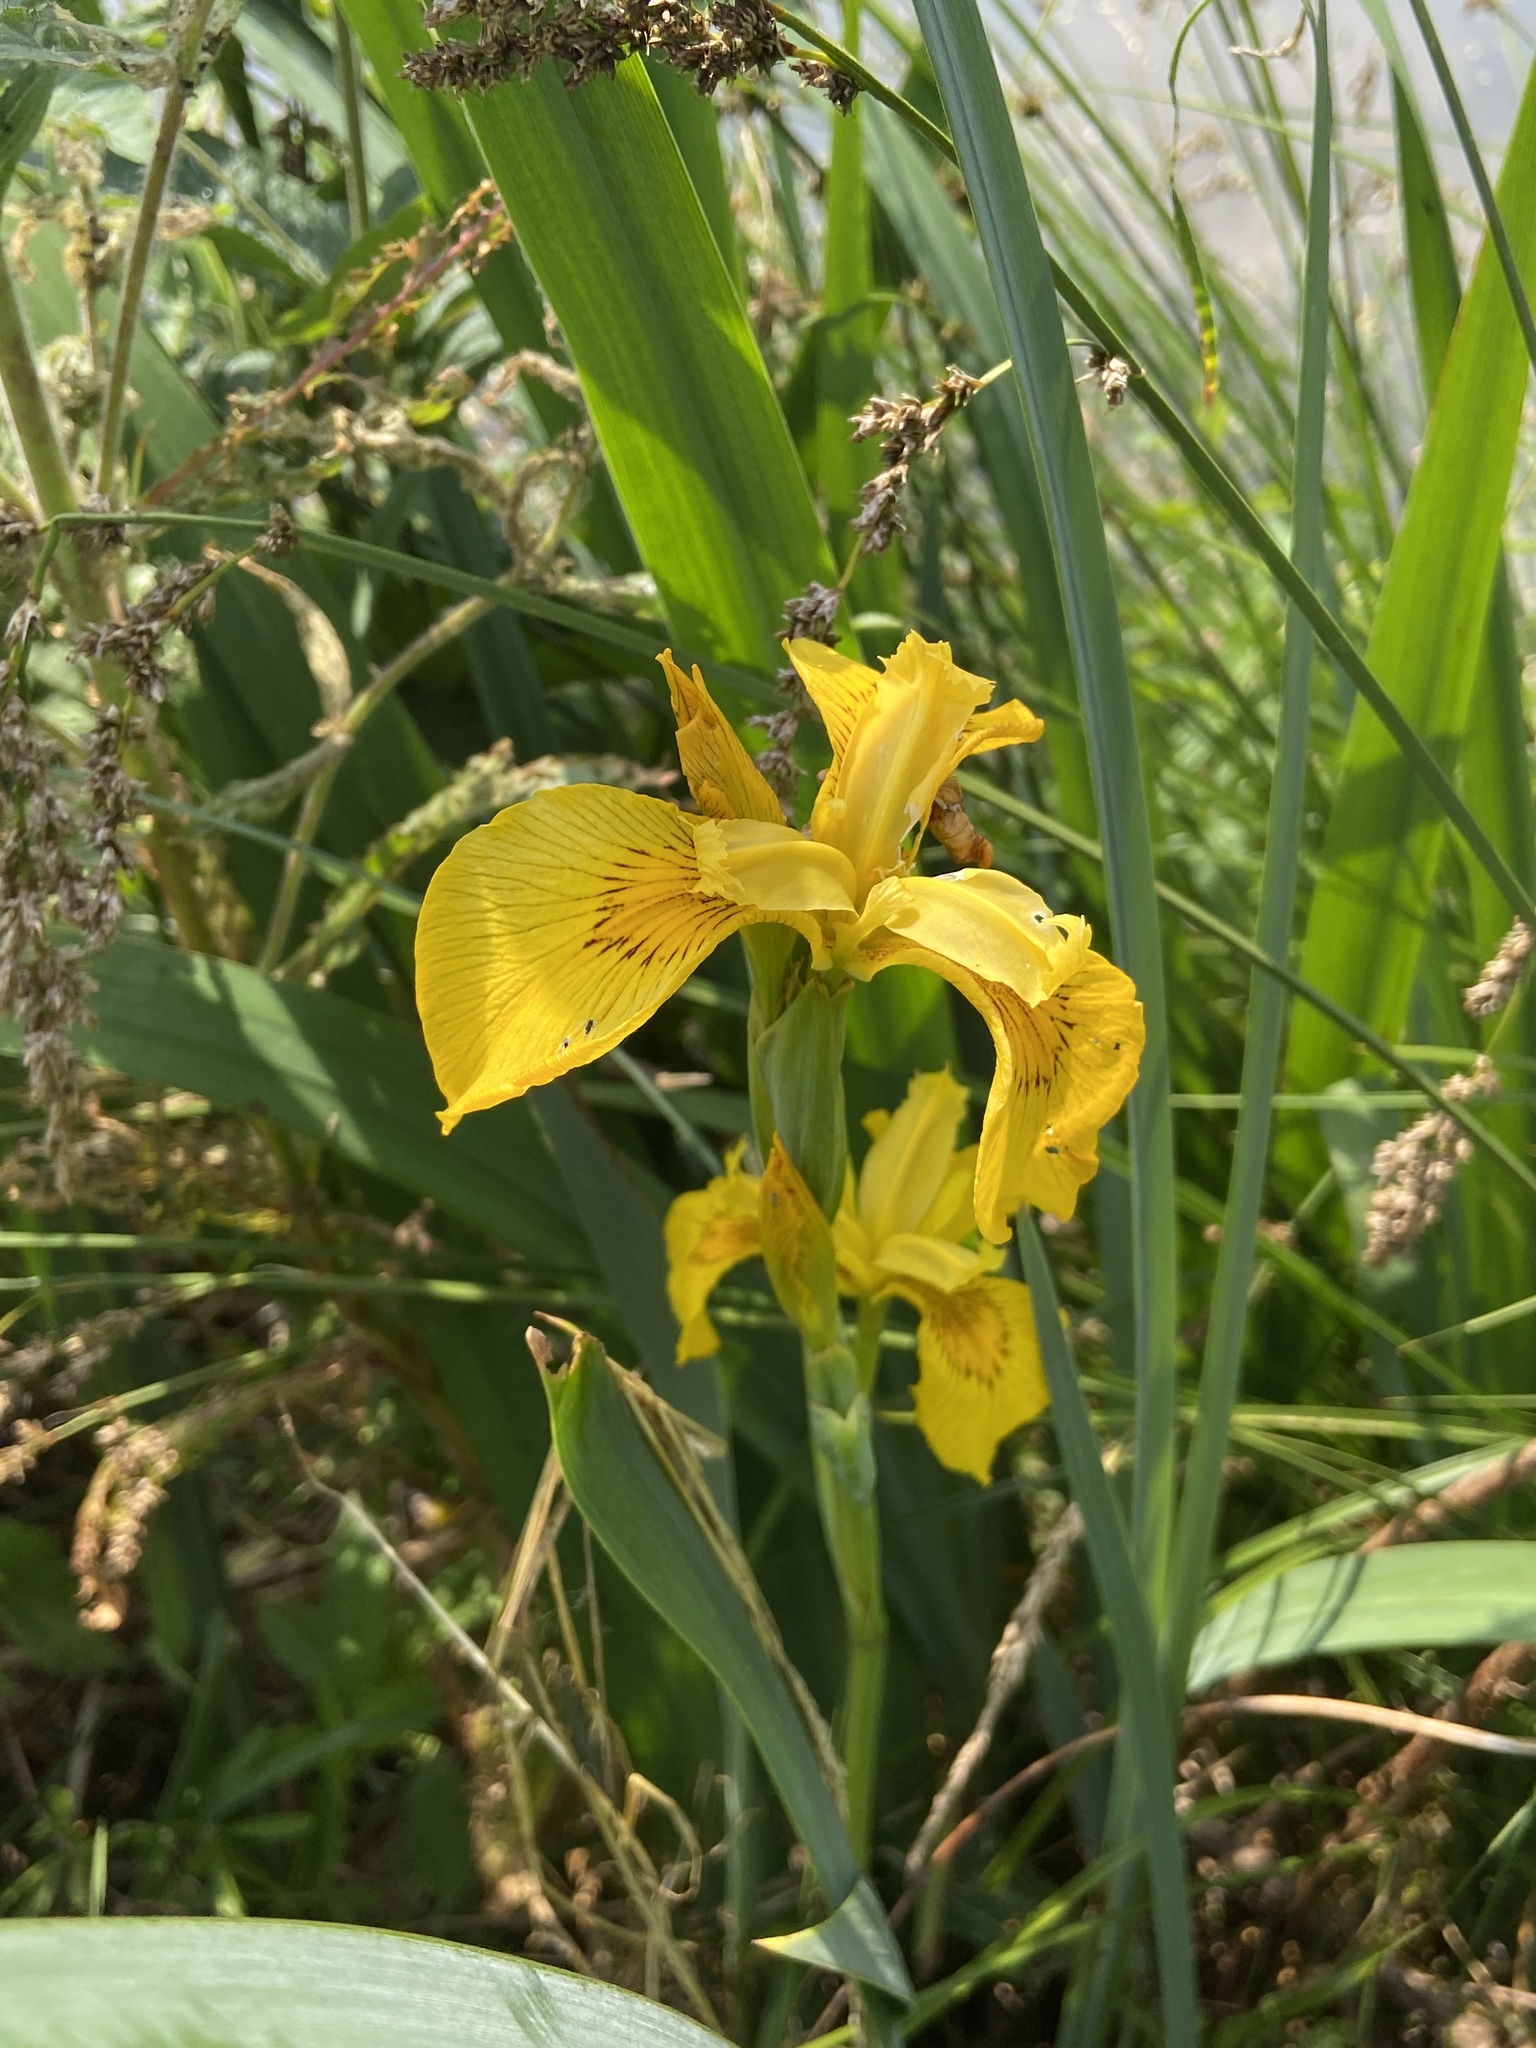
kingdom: Plantae
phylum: Tracheophyta
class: Liliopsida
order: Asparagales
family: Iridaceae
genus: Iris
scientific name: Iris pseudacorus
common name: Yellow flag
